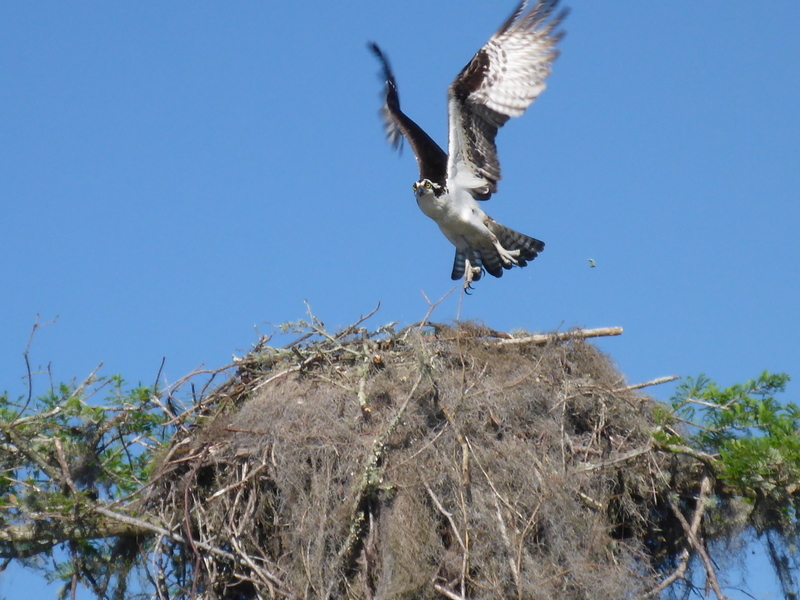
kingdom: Animalia
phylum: Chordata
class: Aves
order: Accipitriformes
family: Pandionidae
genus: Pandion
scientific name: Pandion haliaetus
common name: Osprey
